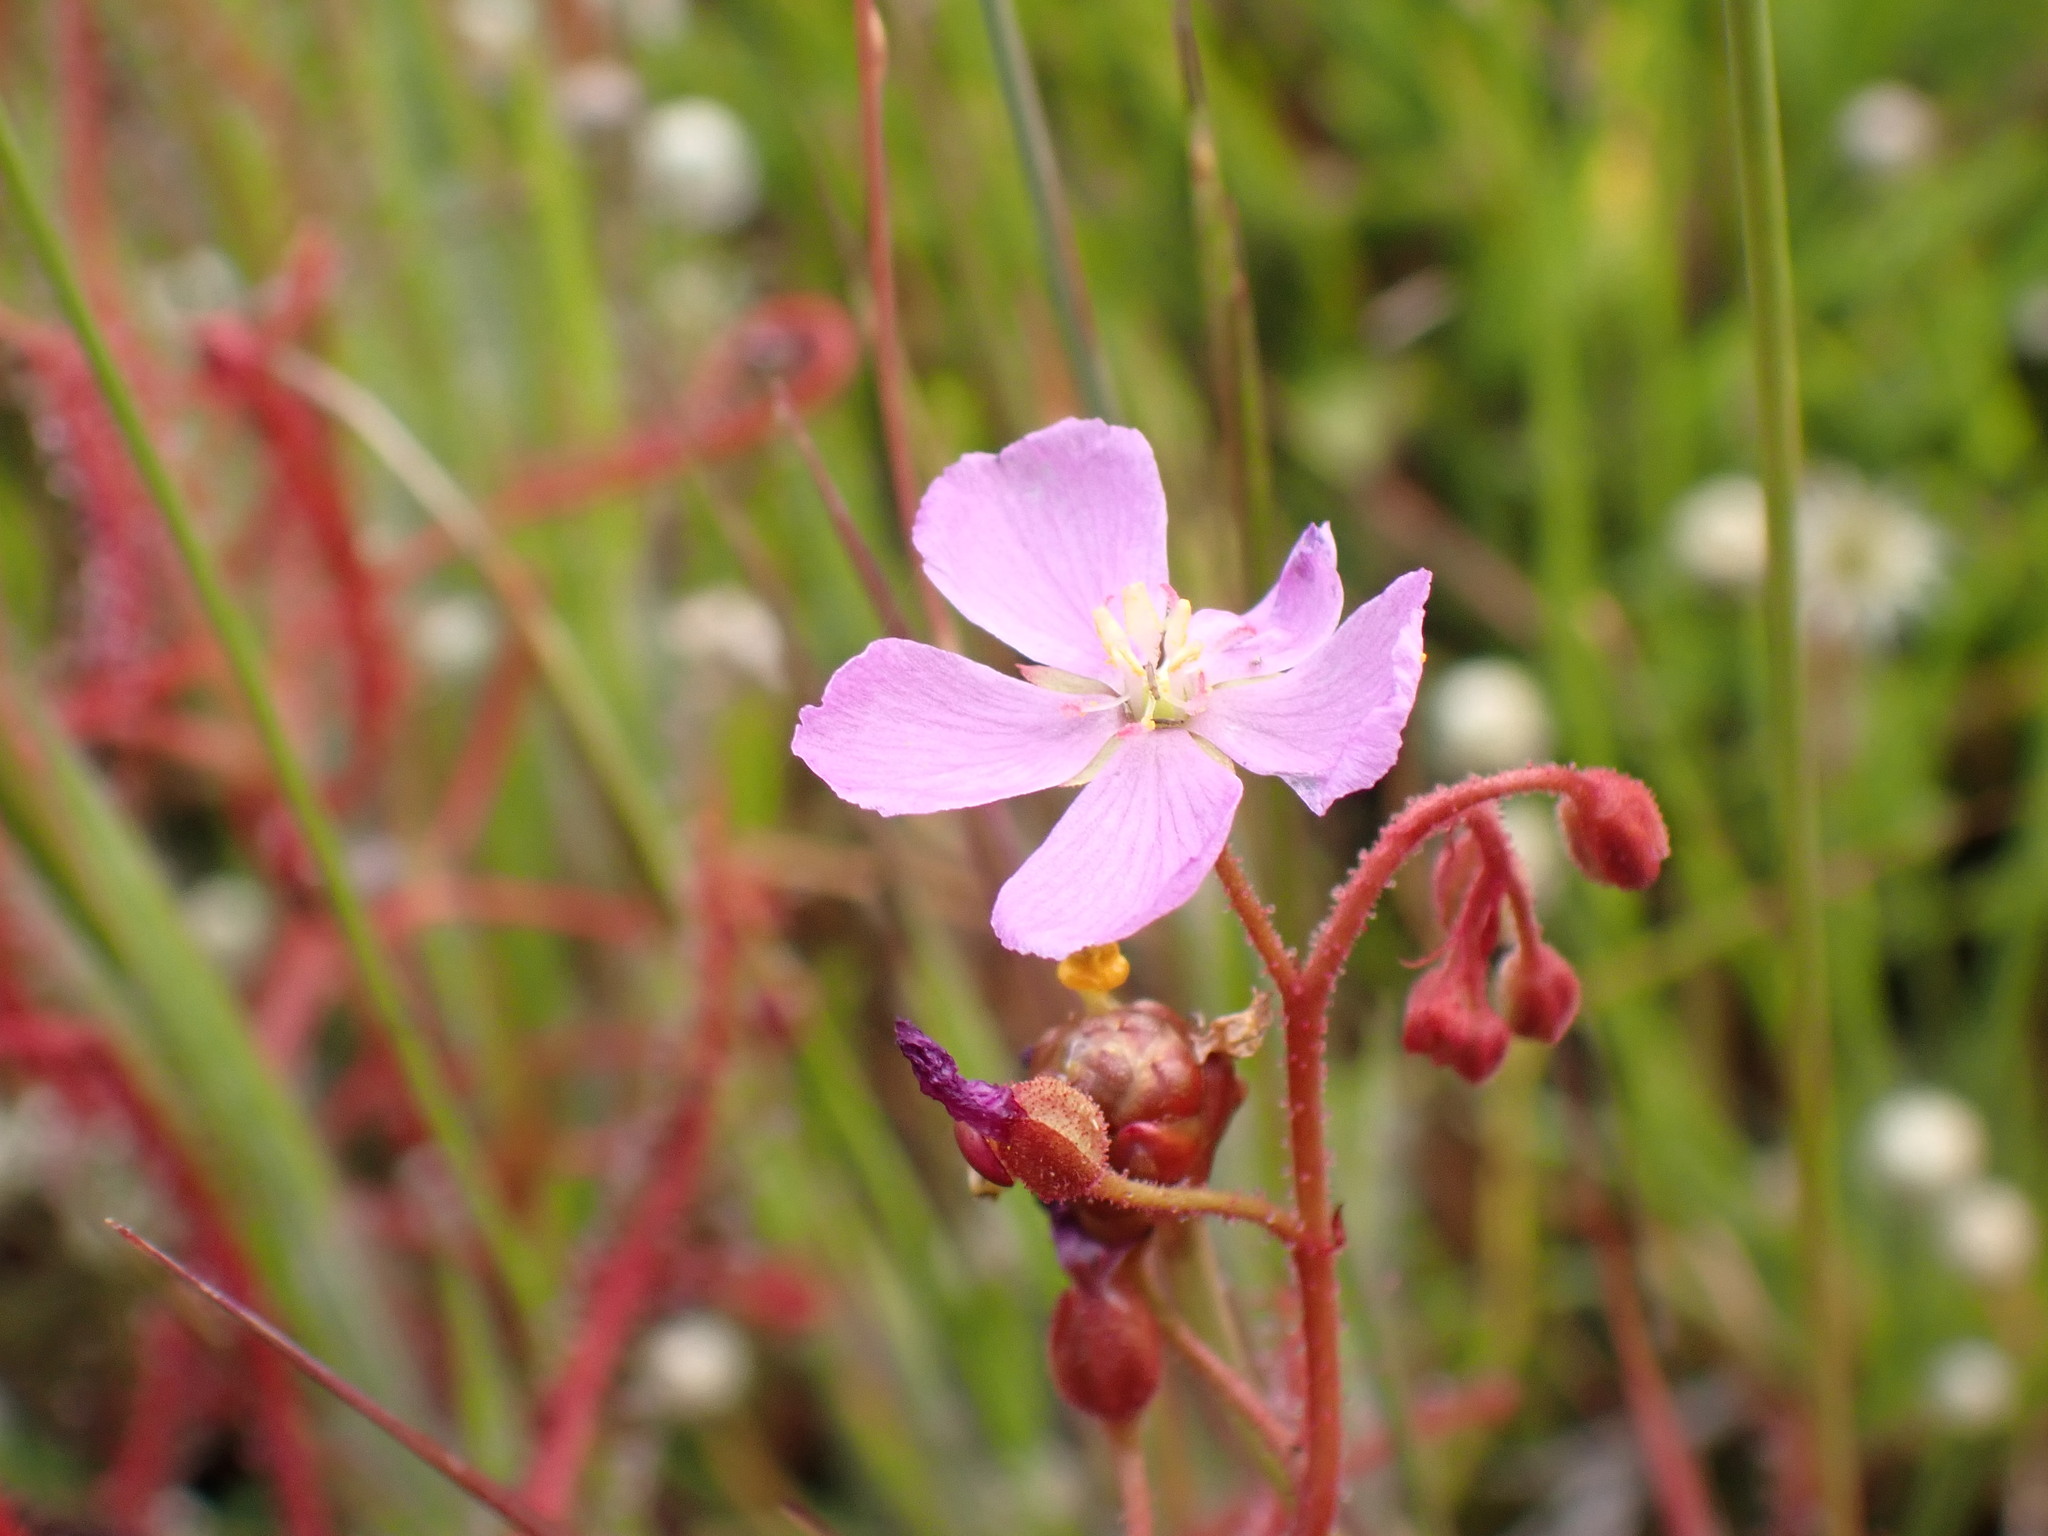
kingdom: Plantae
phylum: Tracheophyta
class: Magnoliopsida
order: Caryophyllales
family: Droseraceae
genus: Drosera
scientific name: Drosera indica
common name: Indian sundew
